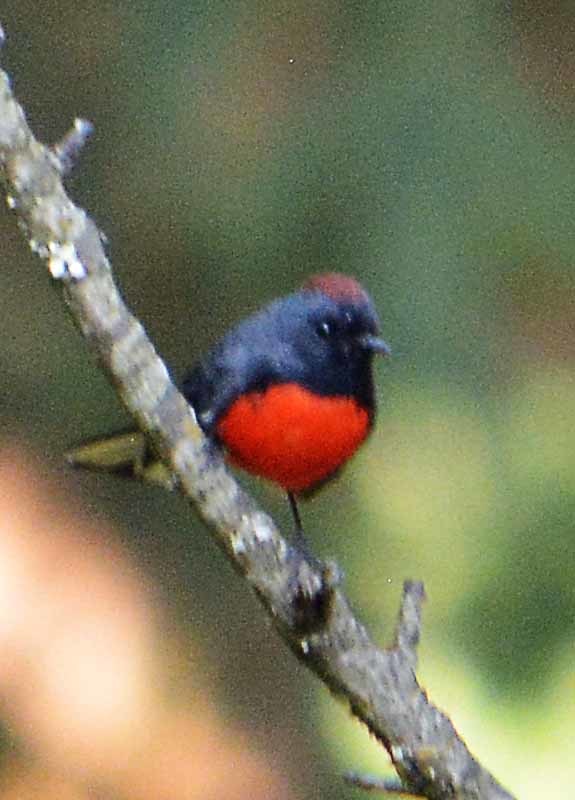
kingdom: Animalia
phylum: Chordata
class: Aves
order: Passeriformes
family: Parulidae
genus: Myioborus
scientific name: Myioborus miniatus
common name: Slate-throated redstart
